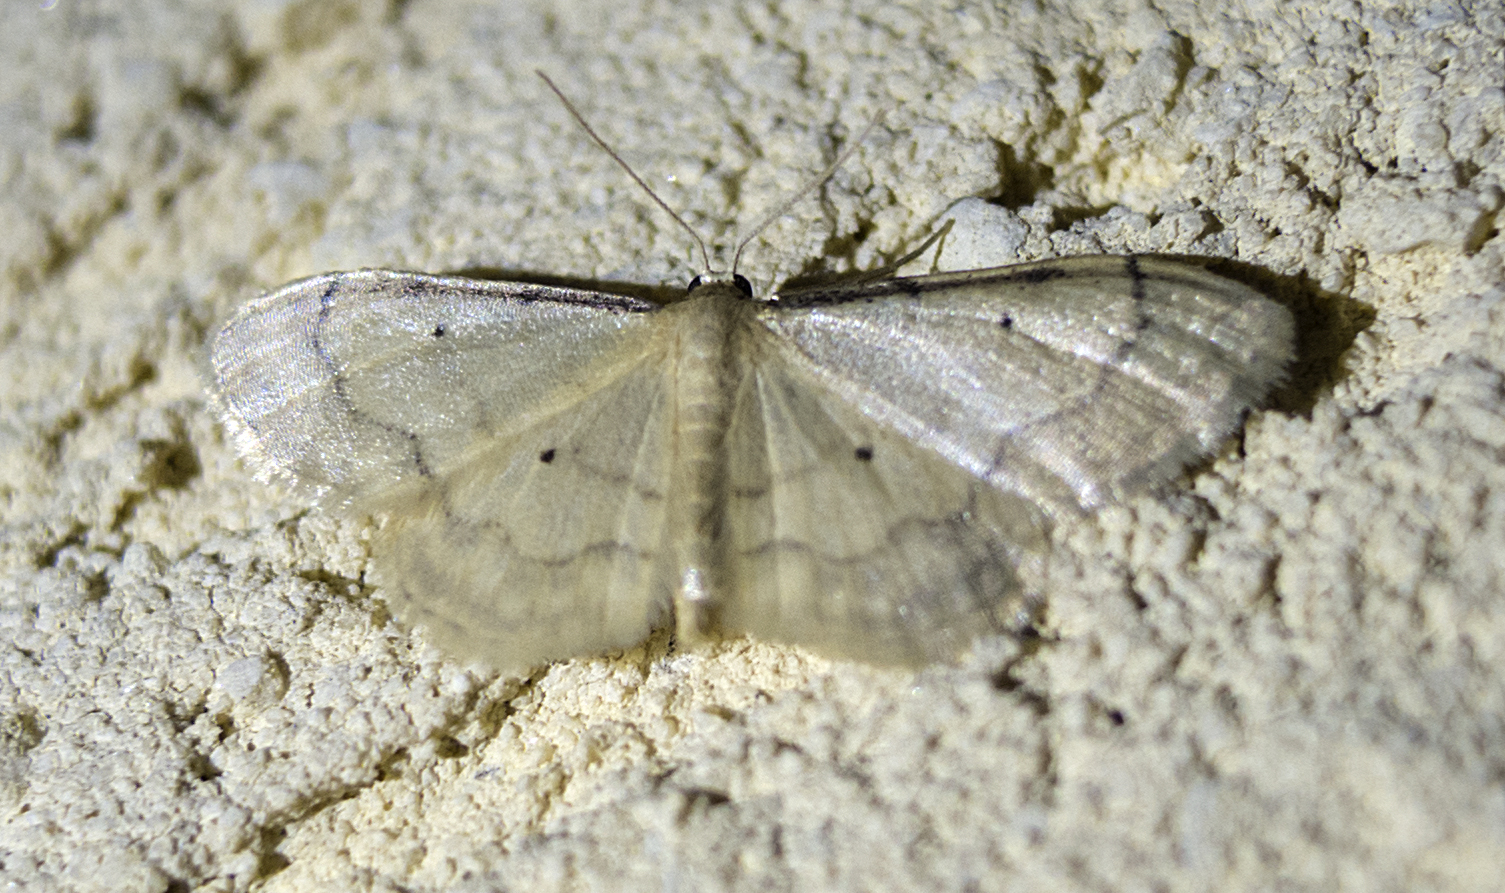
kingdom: Animalia
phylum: Arthropoda
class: Insecta
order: Lepidoptera
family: Geometridae
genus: Idaea
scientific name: Idaea politaria
